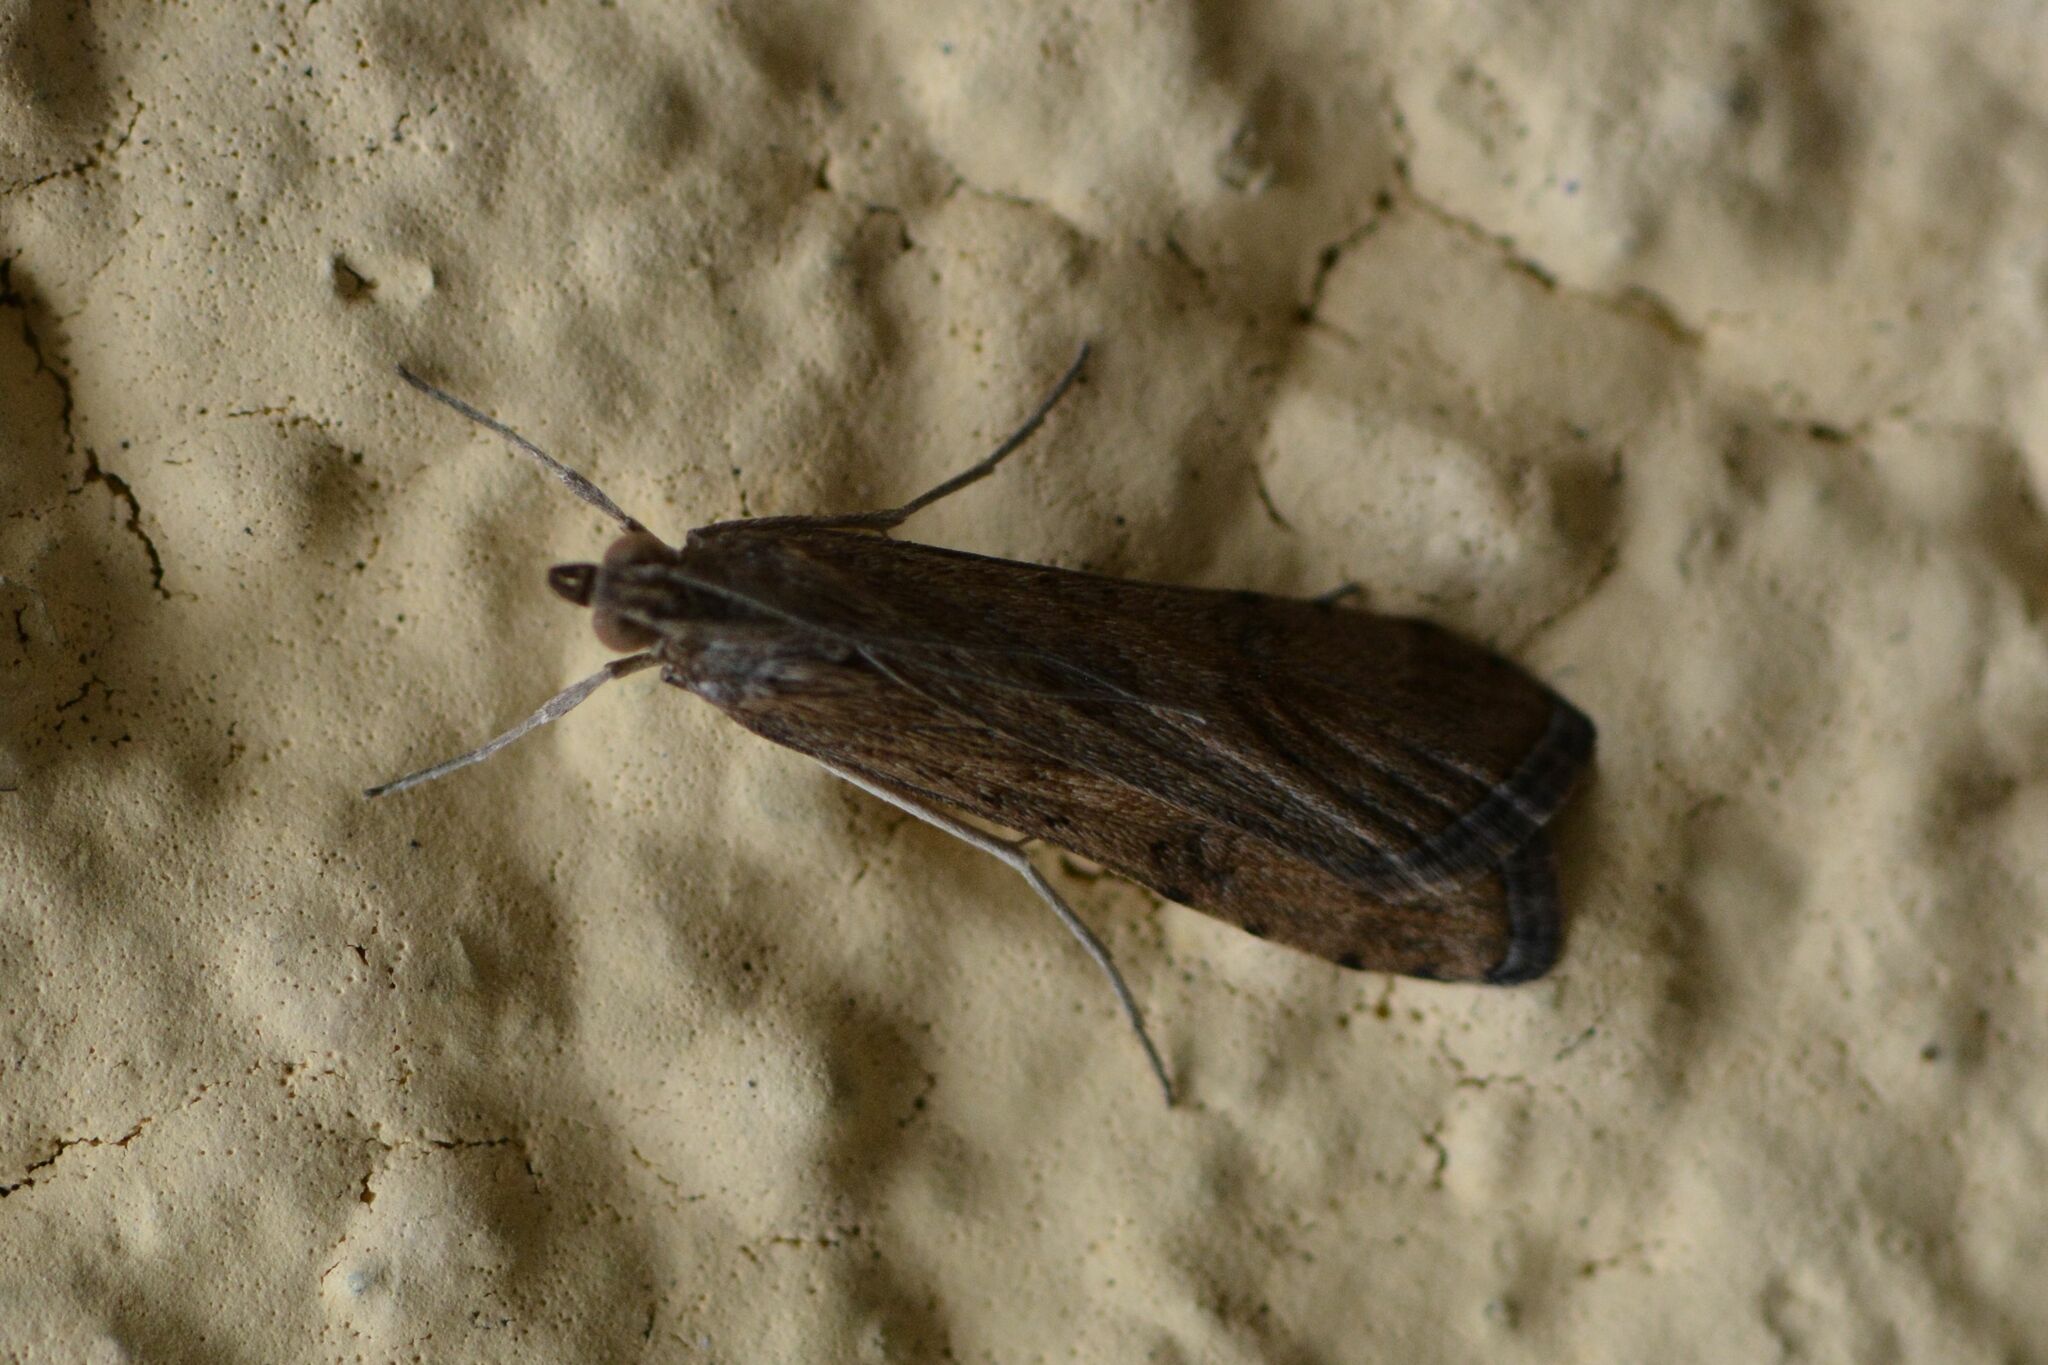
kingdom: Animalia
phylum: Arthropoda
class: Insecta
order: Lepidoptera
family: Crambidae
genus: Nomophila
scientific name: Nomophila noctuella
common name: Rush veneer
